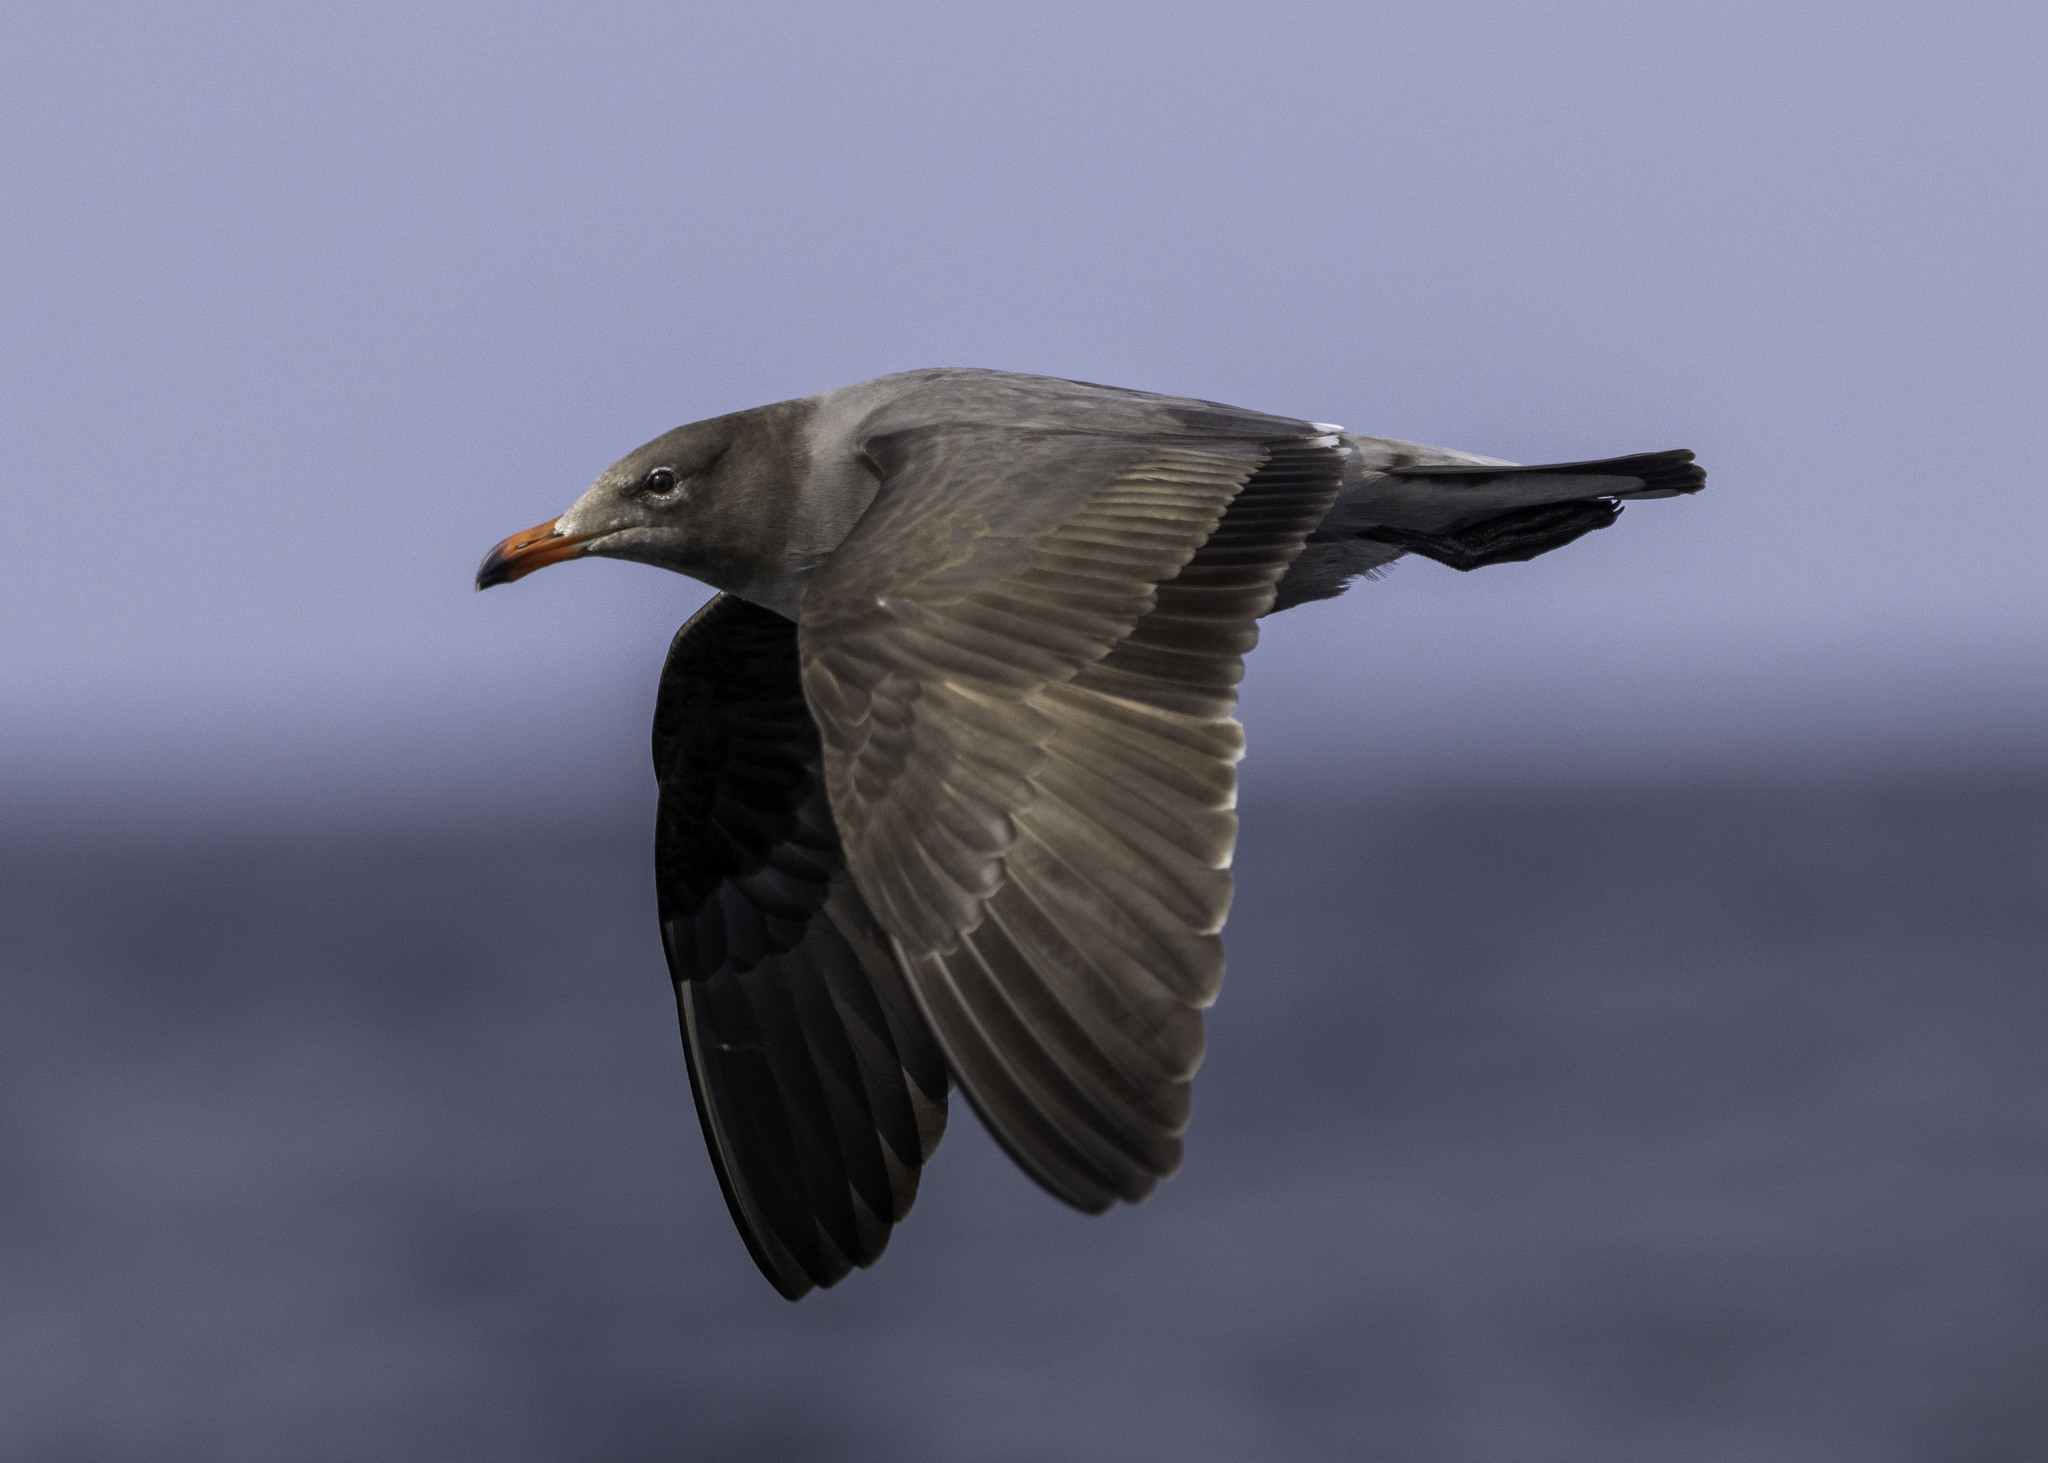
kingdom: Animalia
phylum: Chordata
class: Aves
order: Charadriiformes
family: Laridae
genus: Larus
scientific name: Larus heermanni
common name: Heermann's gull
